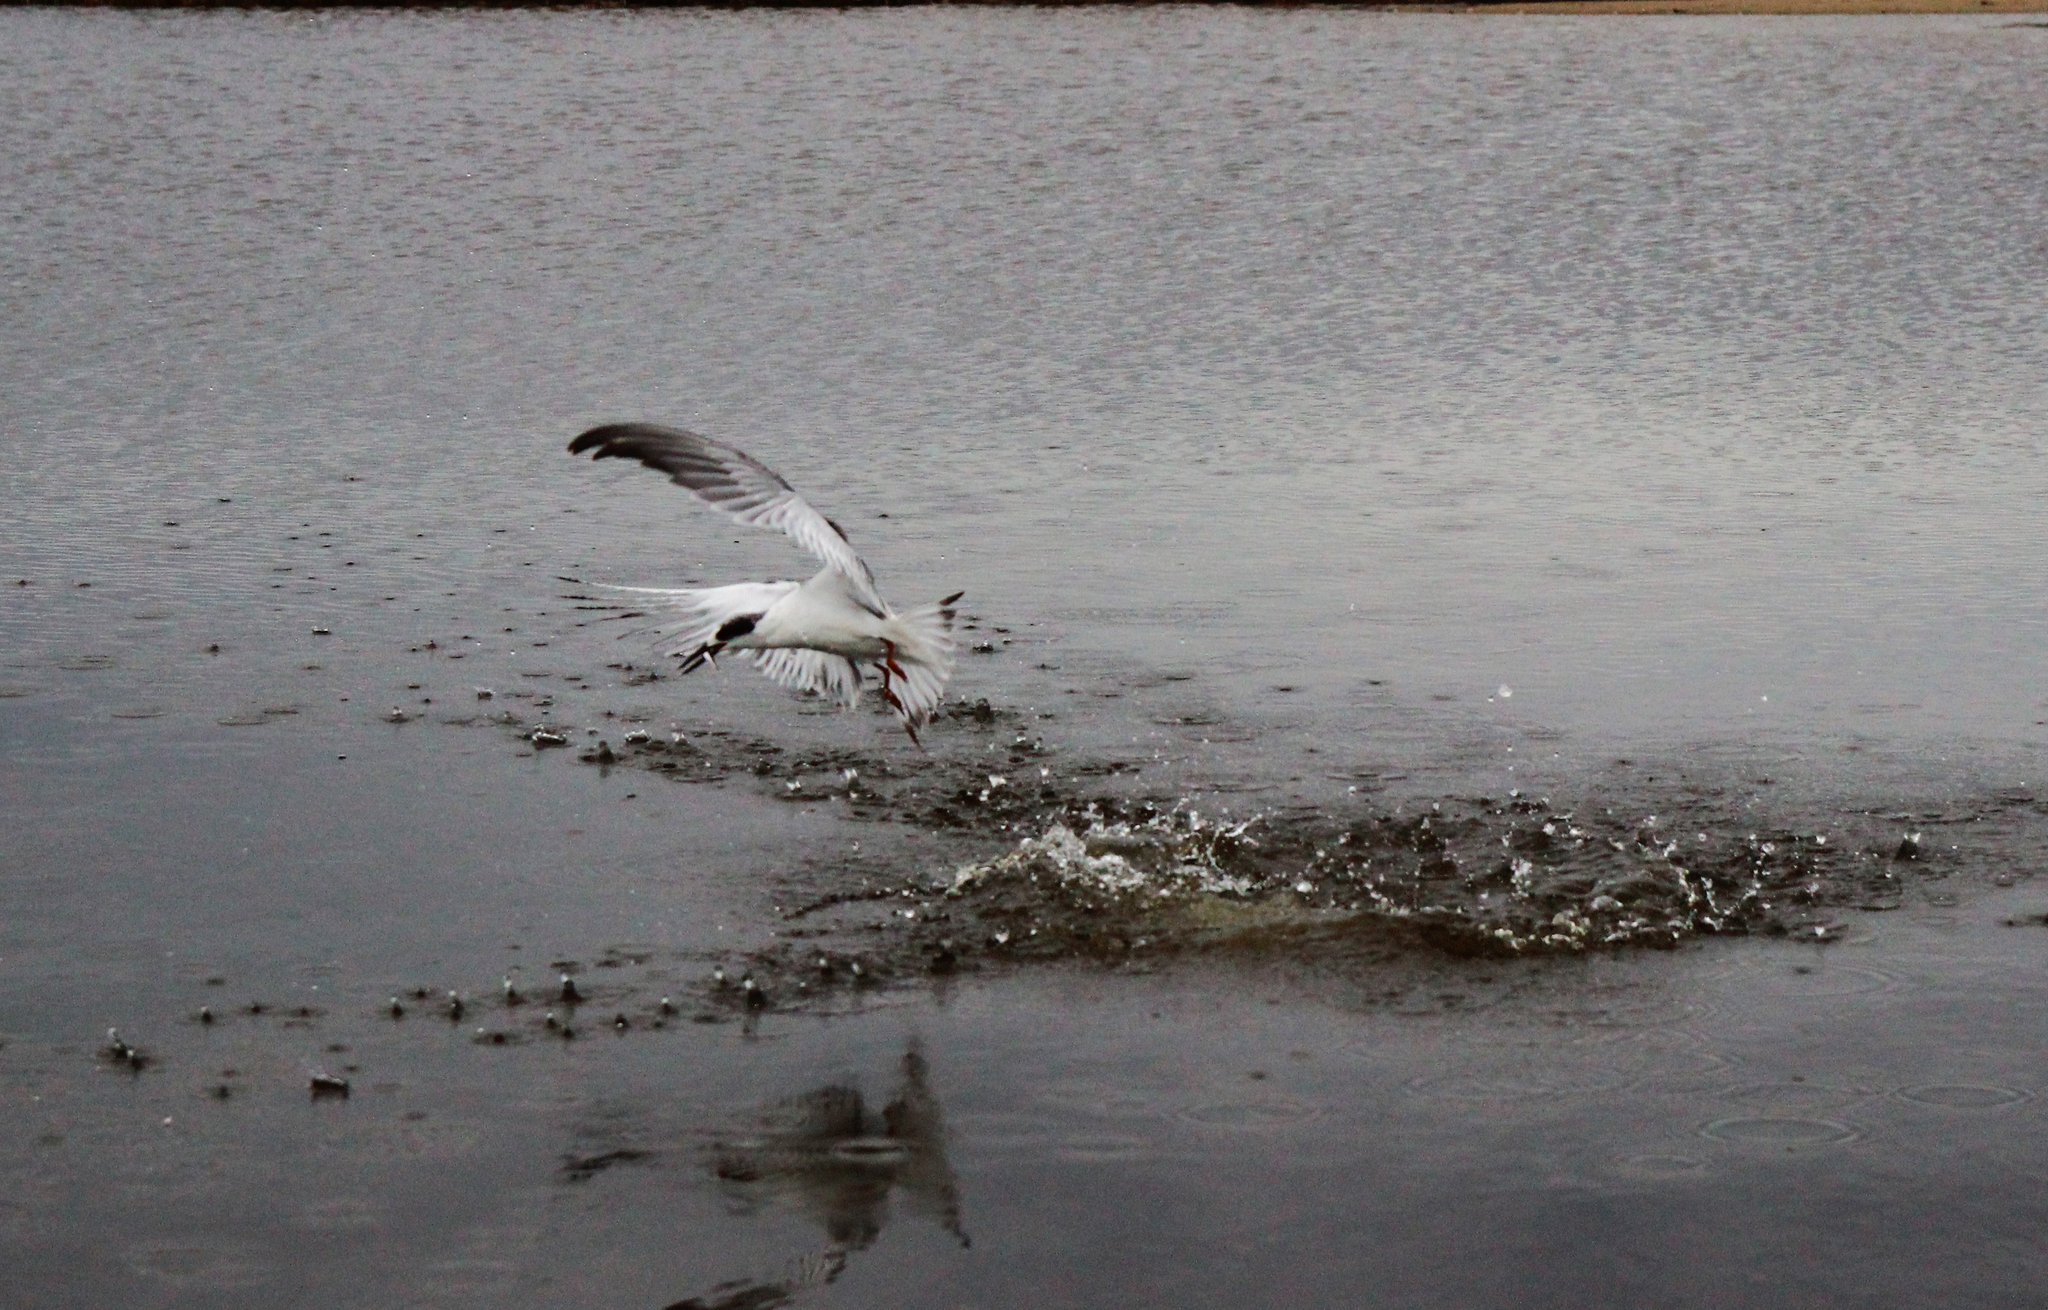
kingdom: Animalia
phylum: Chordata
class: Aves
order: Charadriiformes
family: Laridae
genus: Sterna
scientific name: Sterna forsteri
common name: Forster's tern
